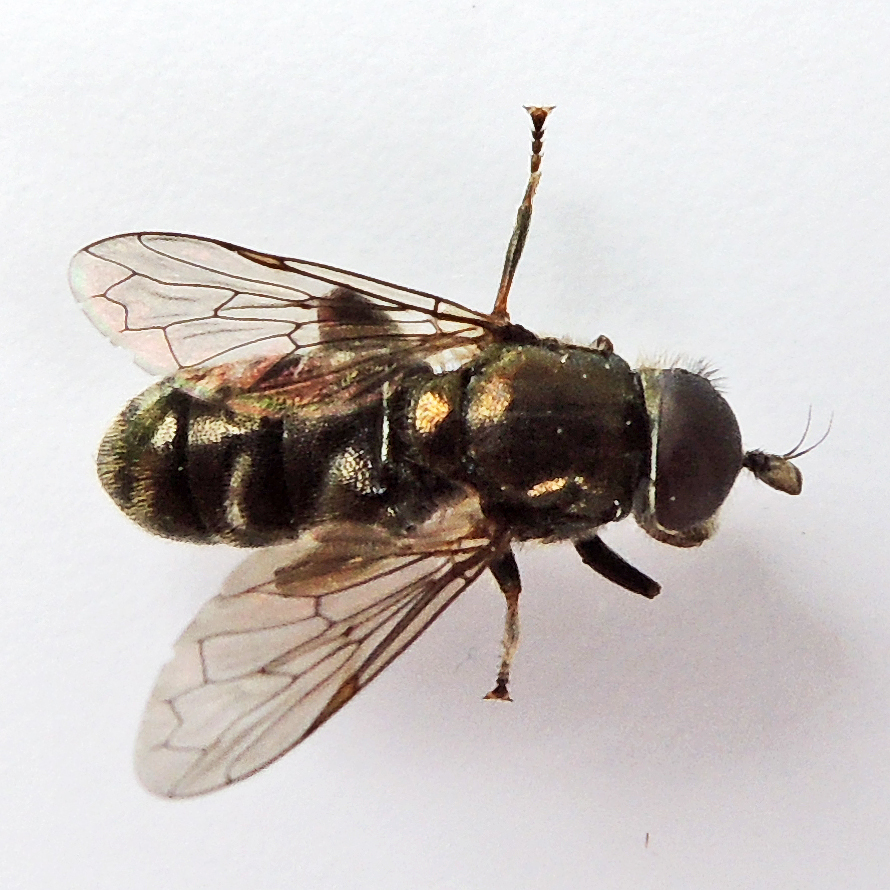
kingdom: Animalia
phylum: Arthropoda
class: Insecta
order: Diptera
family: Syrphidae
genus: Eumerus
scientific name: Eumerus funeralis
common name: Lesser bulb-fly
